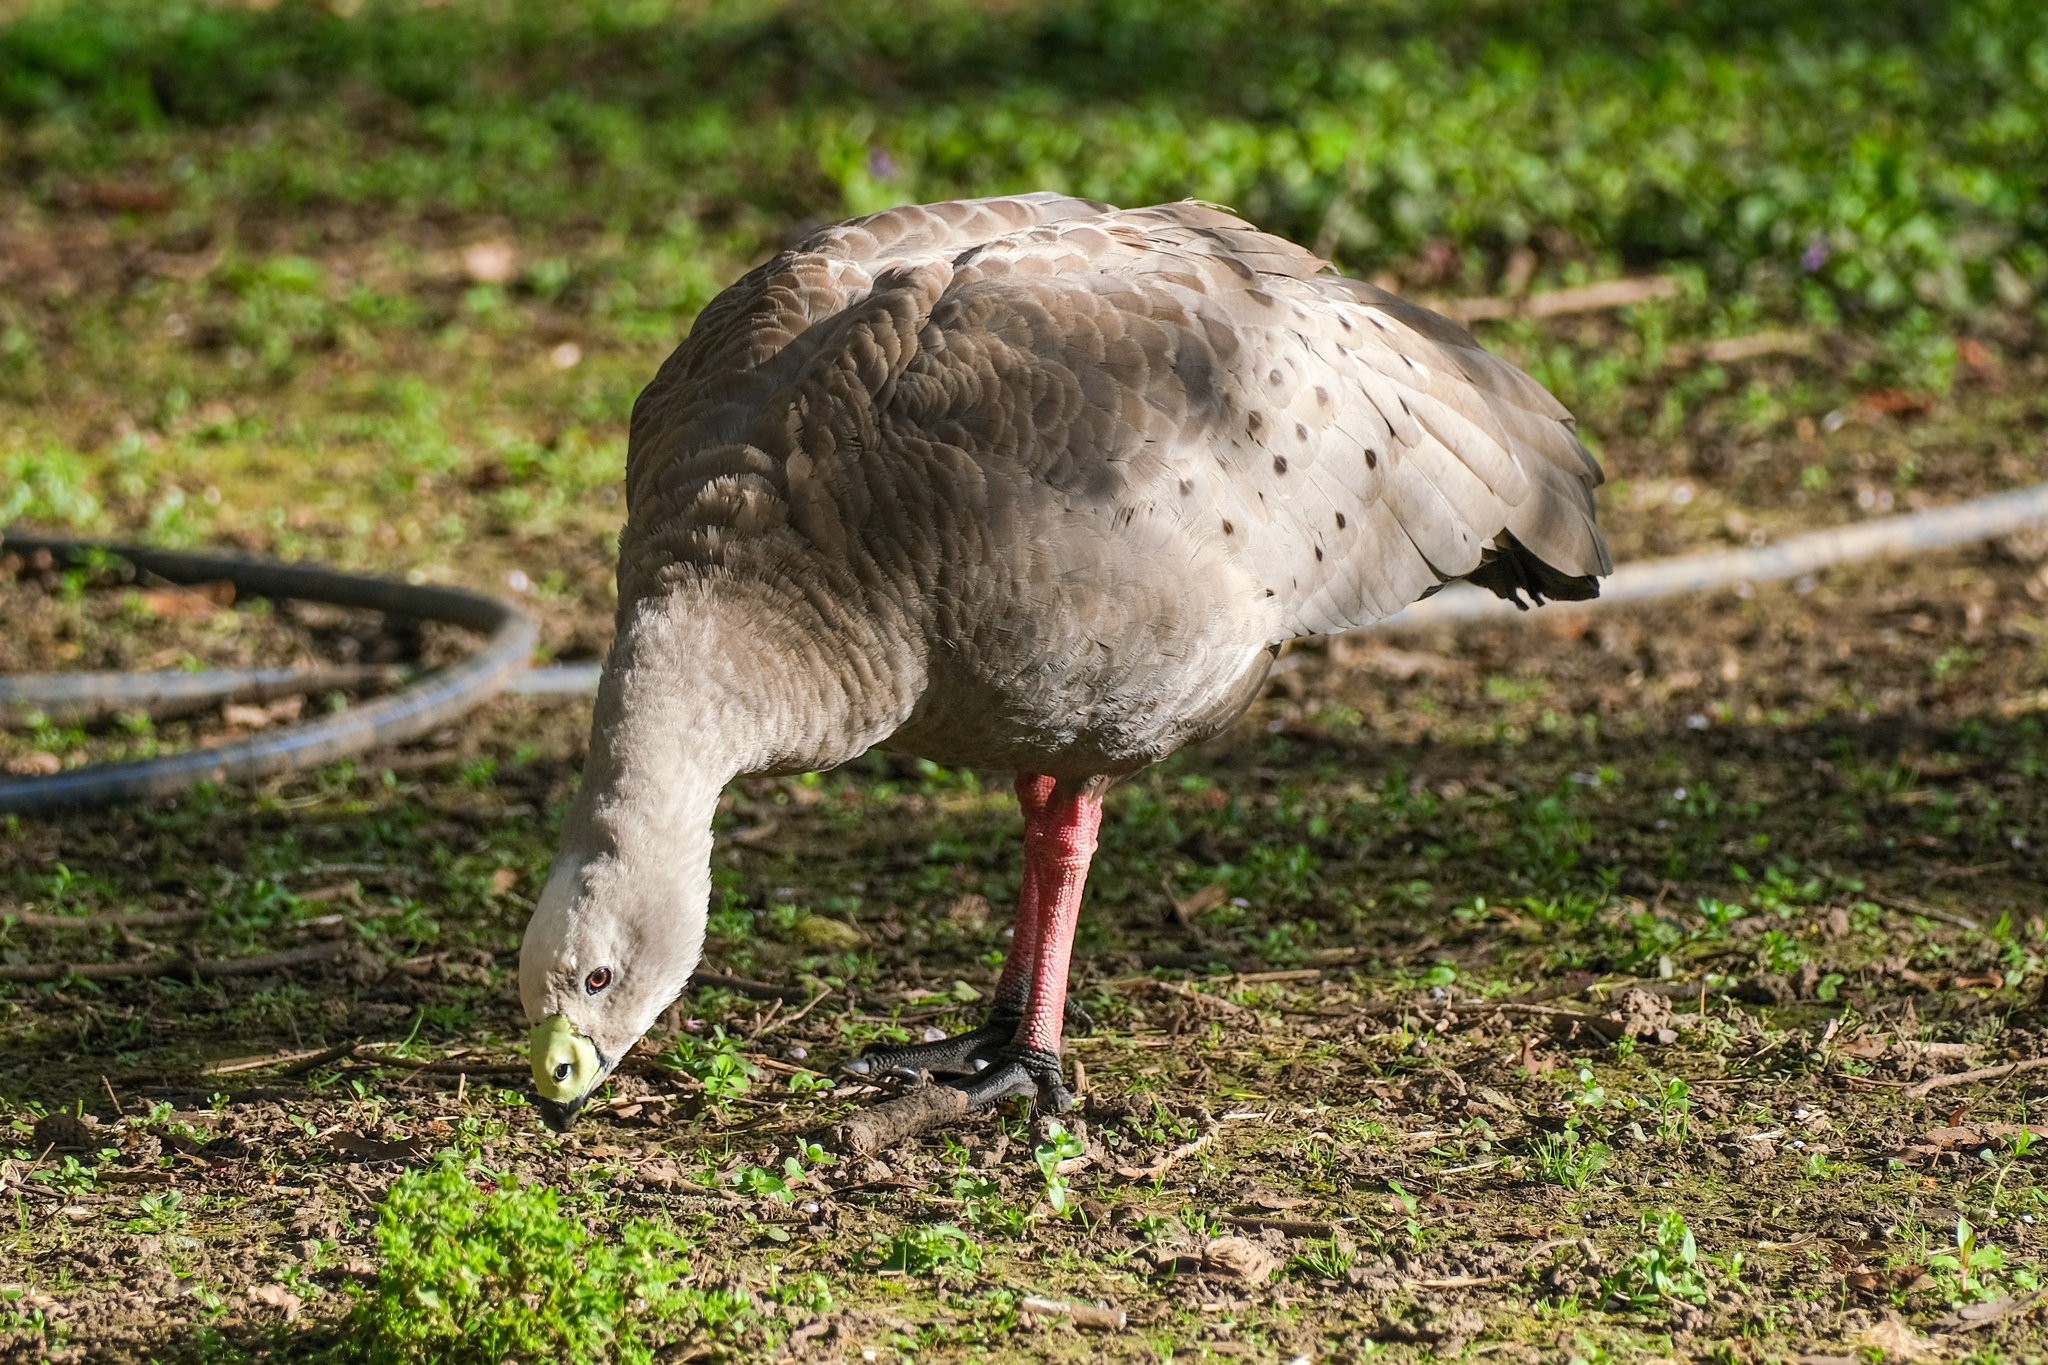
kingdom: Animalia
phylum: Chordata
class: Aves
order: Anseriformes
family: Anatidae
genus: Cereopsis
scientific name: Cereopsis novaehollandiae
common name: Cape barren goose
